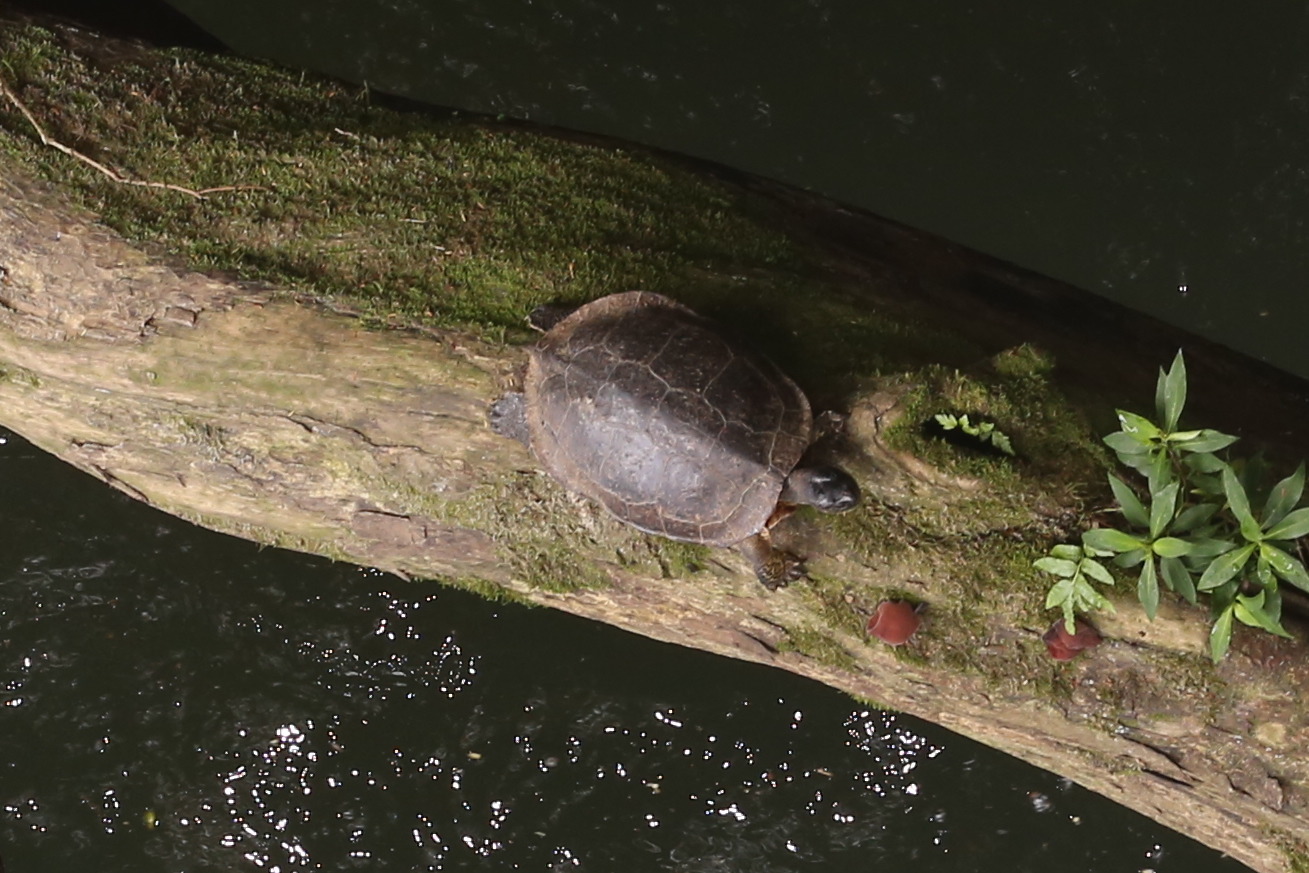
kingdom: Animalia
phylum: Chordata
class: Testudines
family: Geoemydidae
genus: Rhinoclemmys
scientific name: Rhinoclemmys funerea
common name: Black wood turtle
